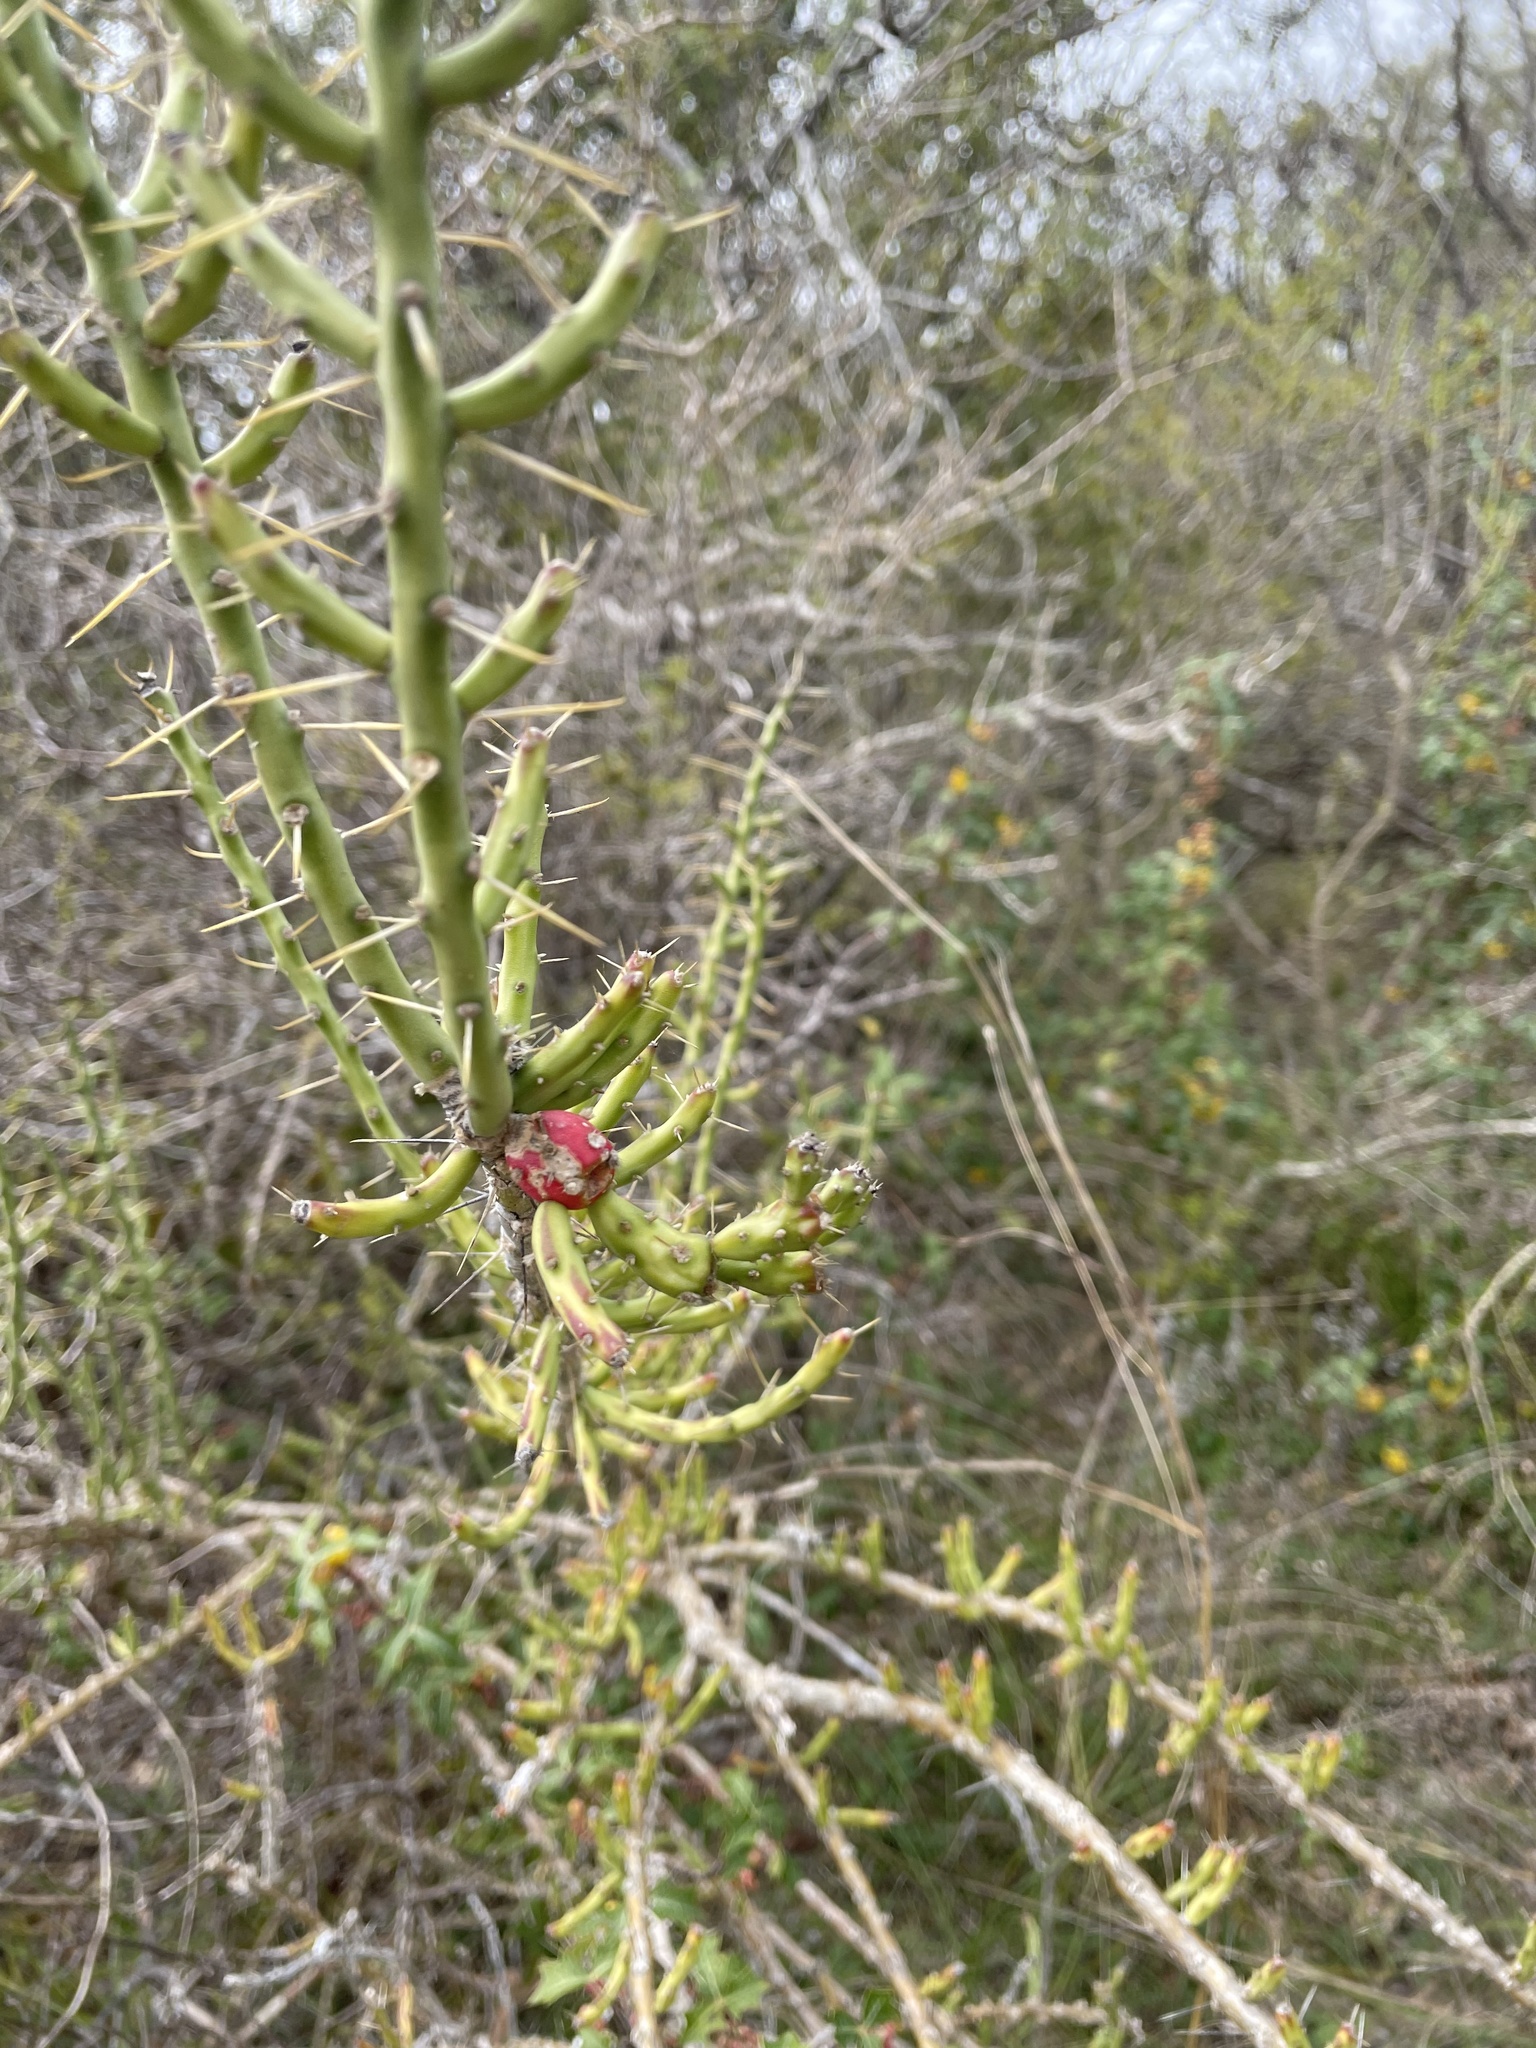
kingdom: Plantae
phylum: Tracheophyta
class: Magnoliopsida
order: Caryophyllales
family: Cactaceae
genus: Cylindropuntia
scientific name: Cylindropuntia leptocaulis
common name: Christmas cactus
